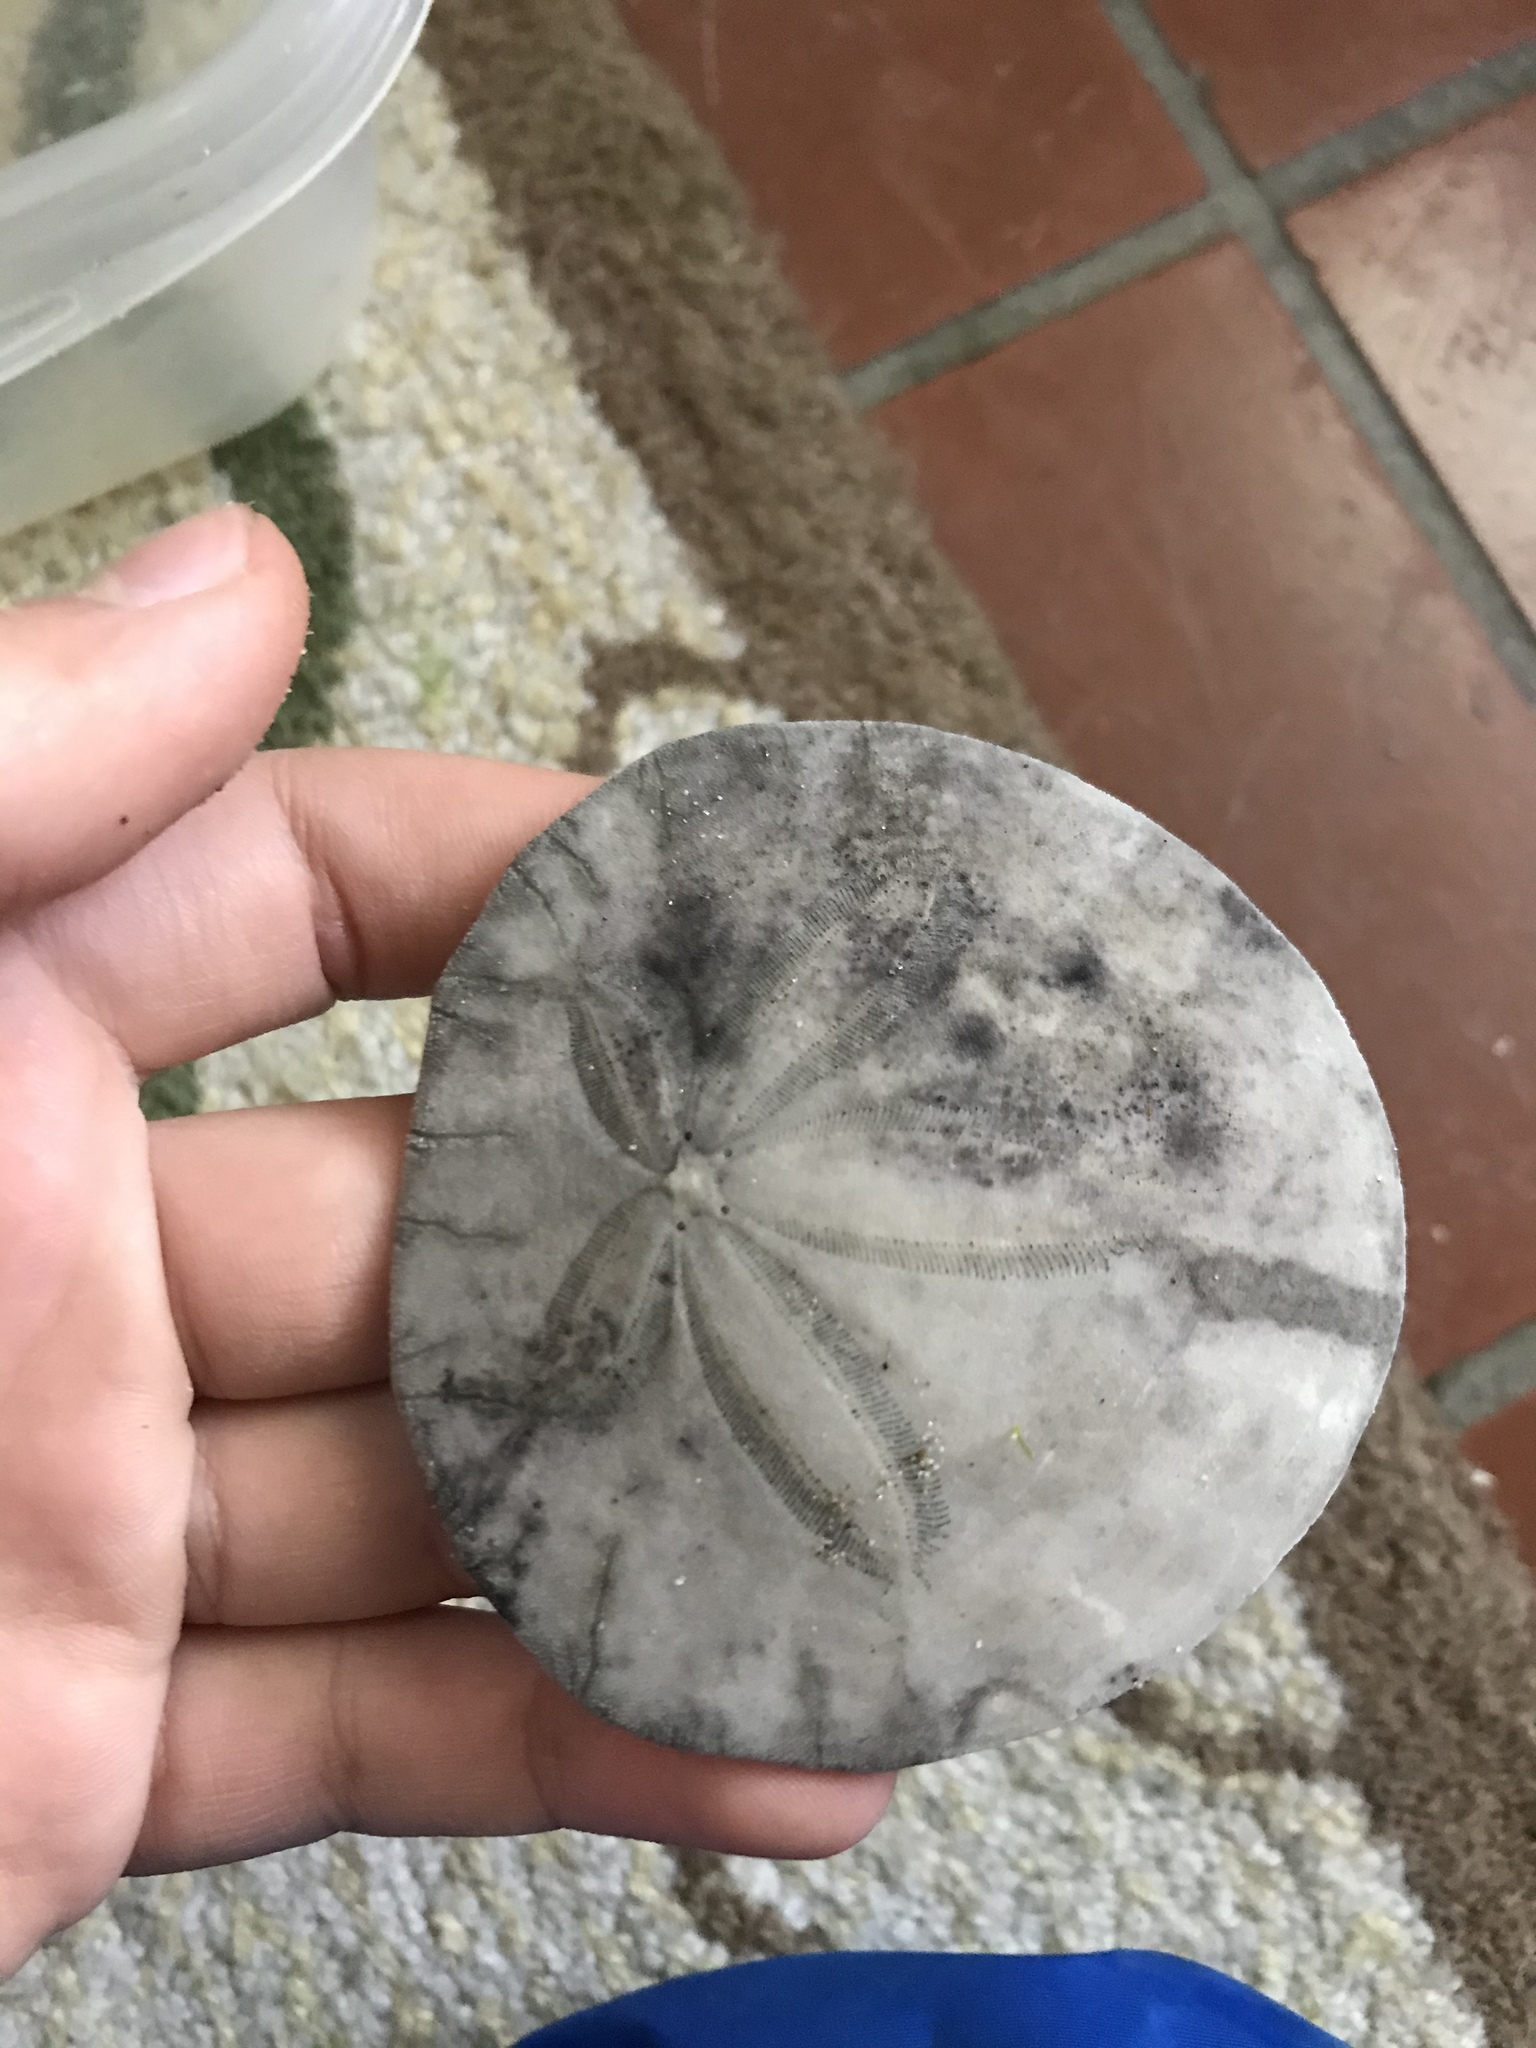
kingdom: Animalia
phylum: Echinodermata
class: Echinoidea
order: Echinolampadacea
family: Dendrasteridae
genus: Dendraster
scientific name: Dendraster excentricus
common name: Eccentric sand dollar sea urchin
